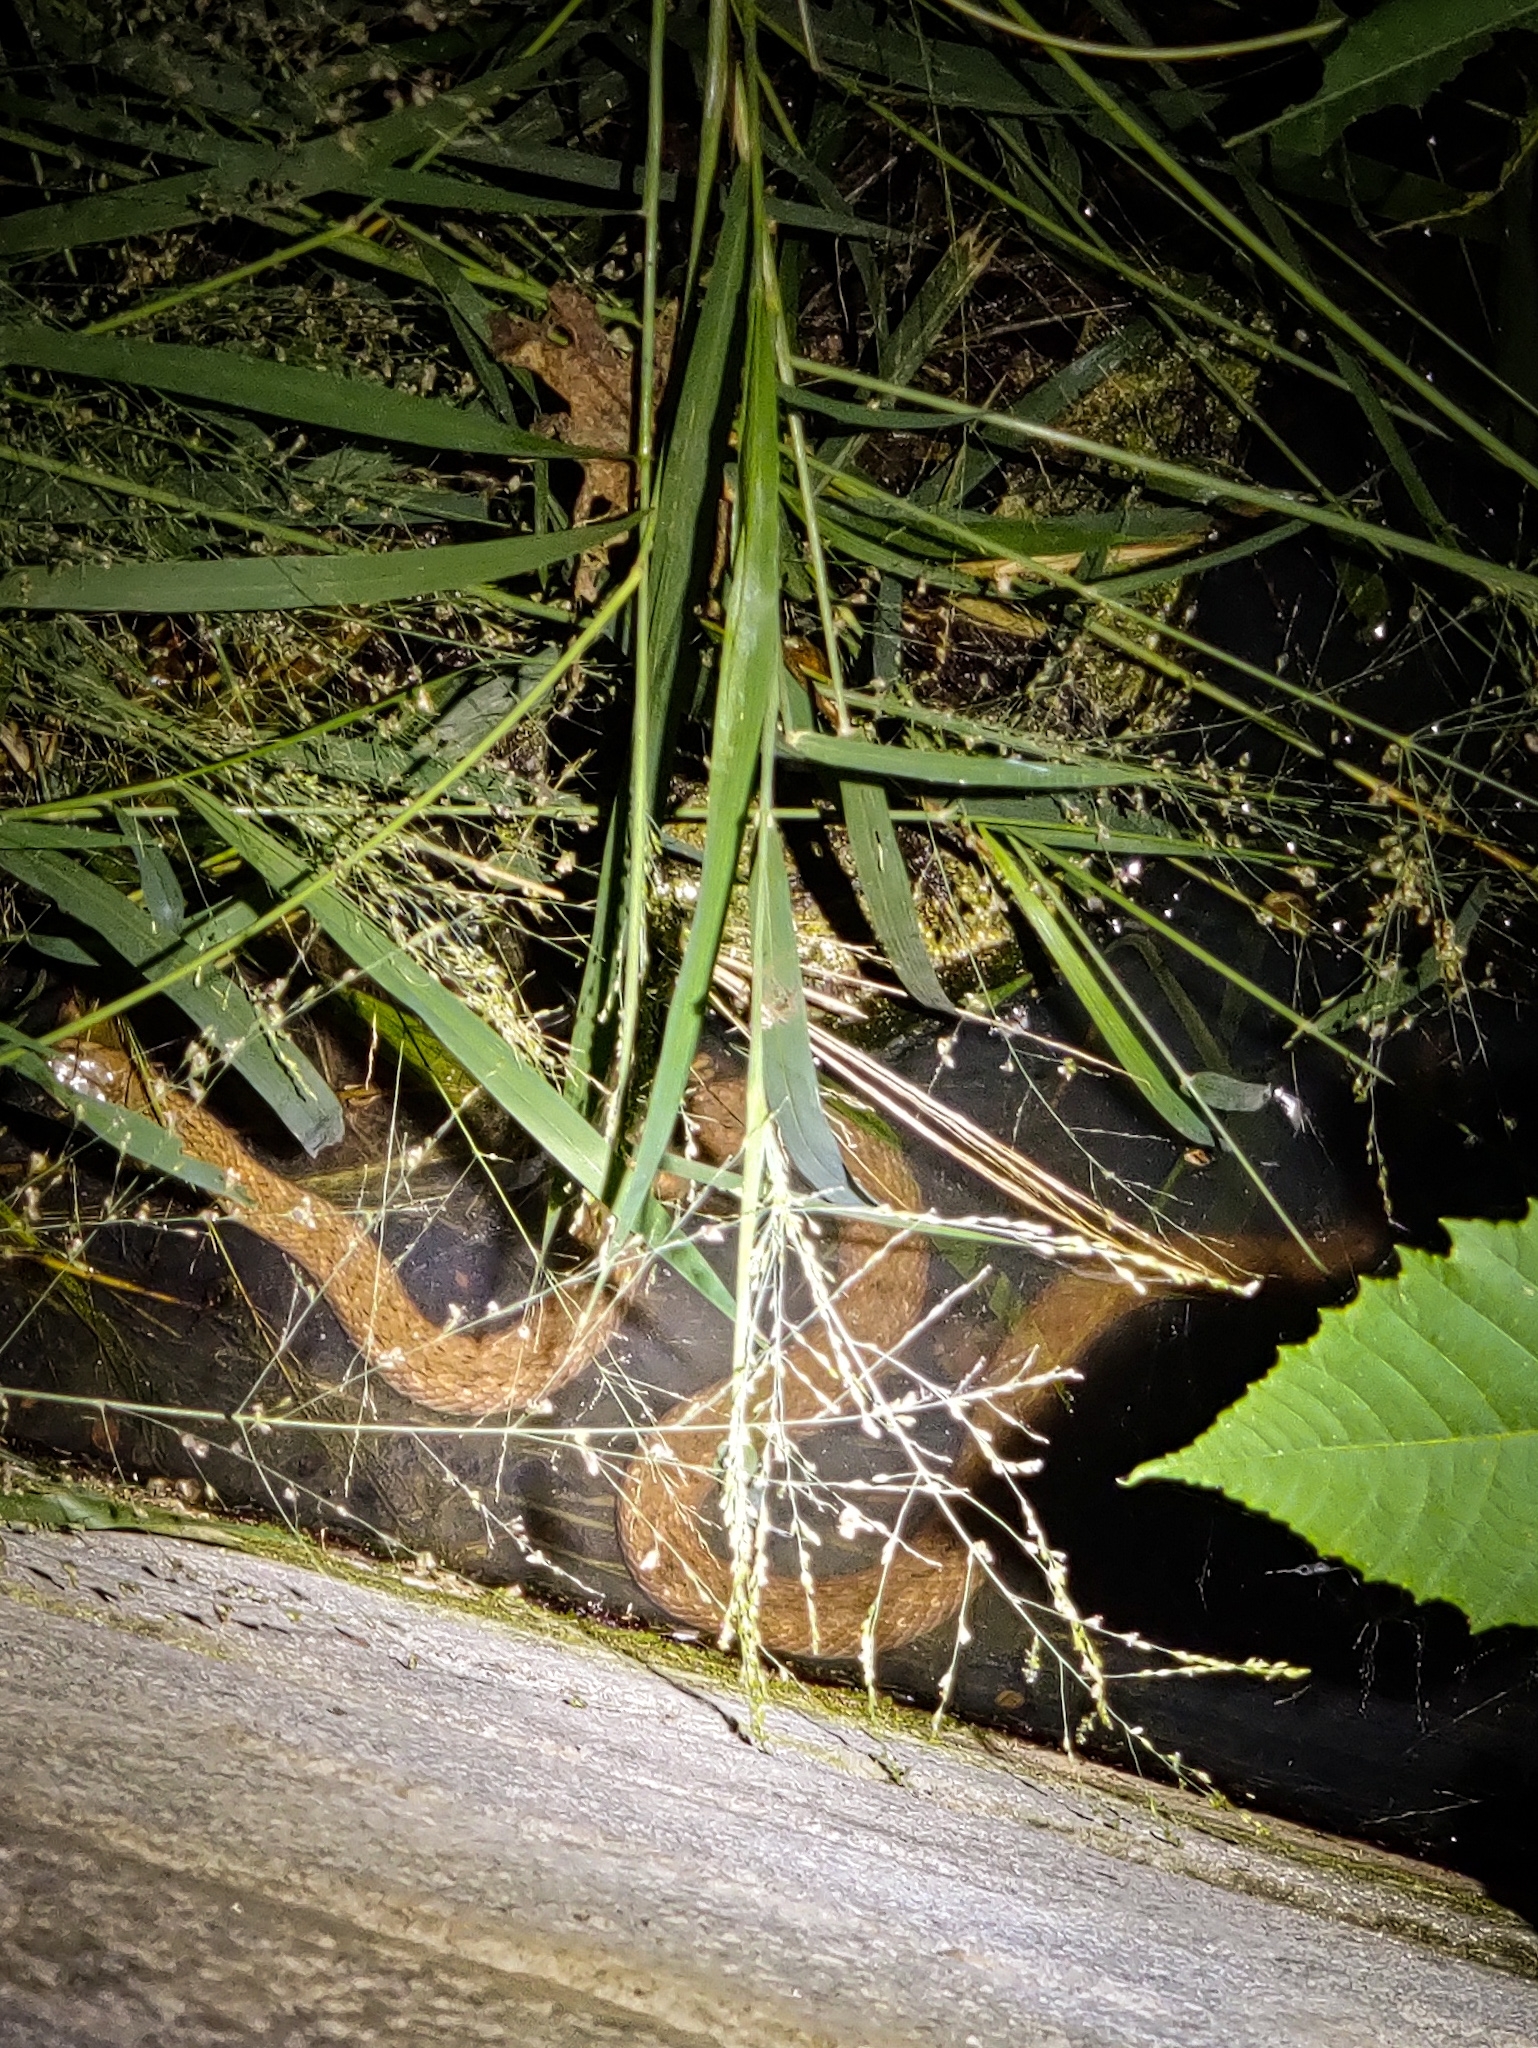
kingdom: Animalia
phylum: Chordata
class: Squamata
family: Colubridae
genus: Fowlea
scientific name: Fowlea piscator
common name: Asiatic water snake
